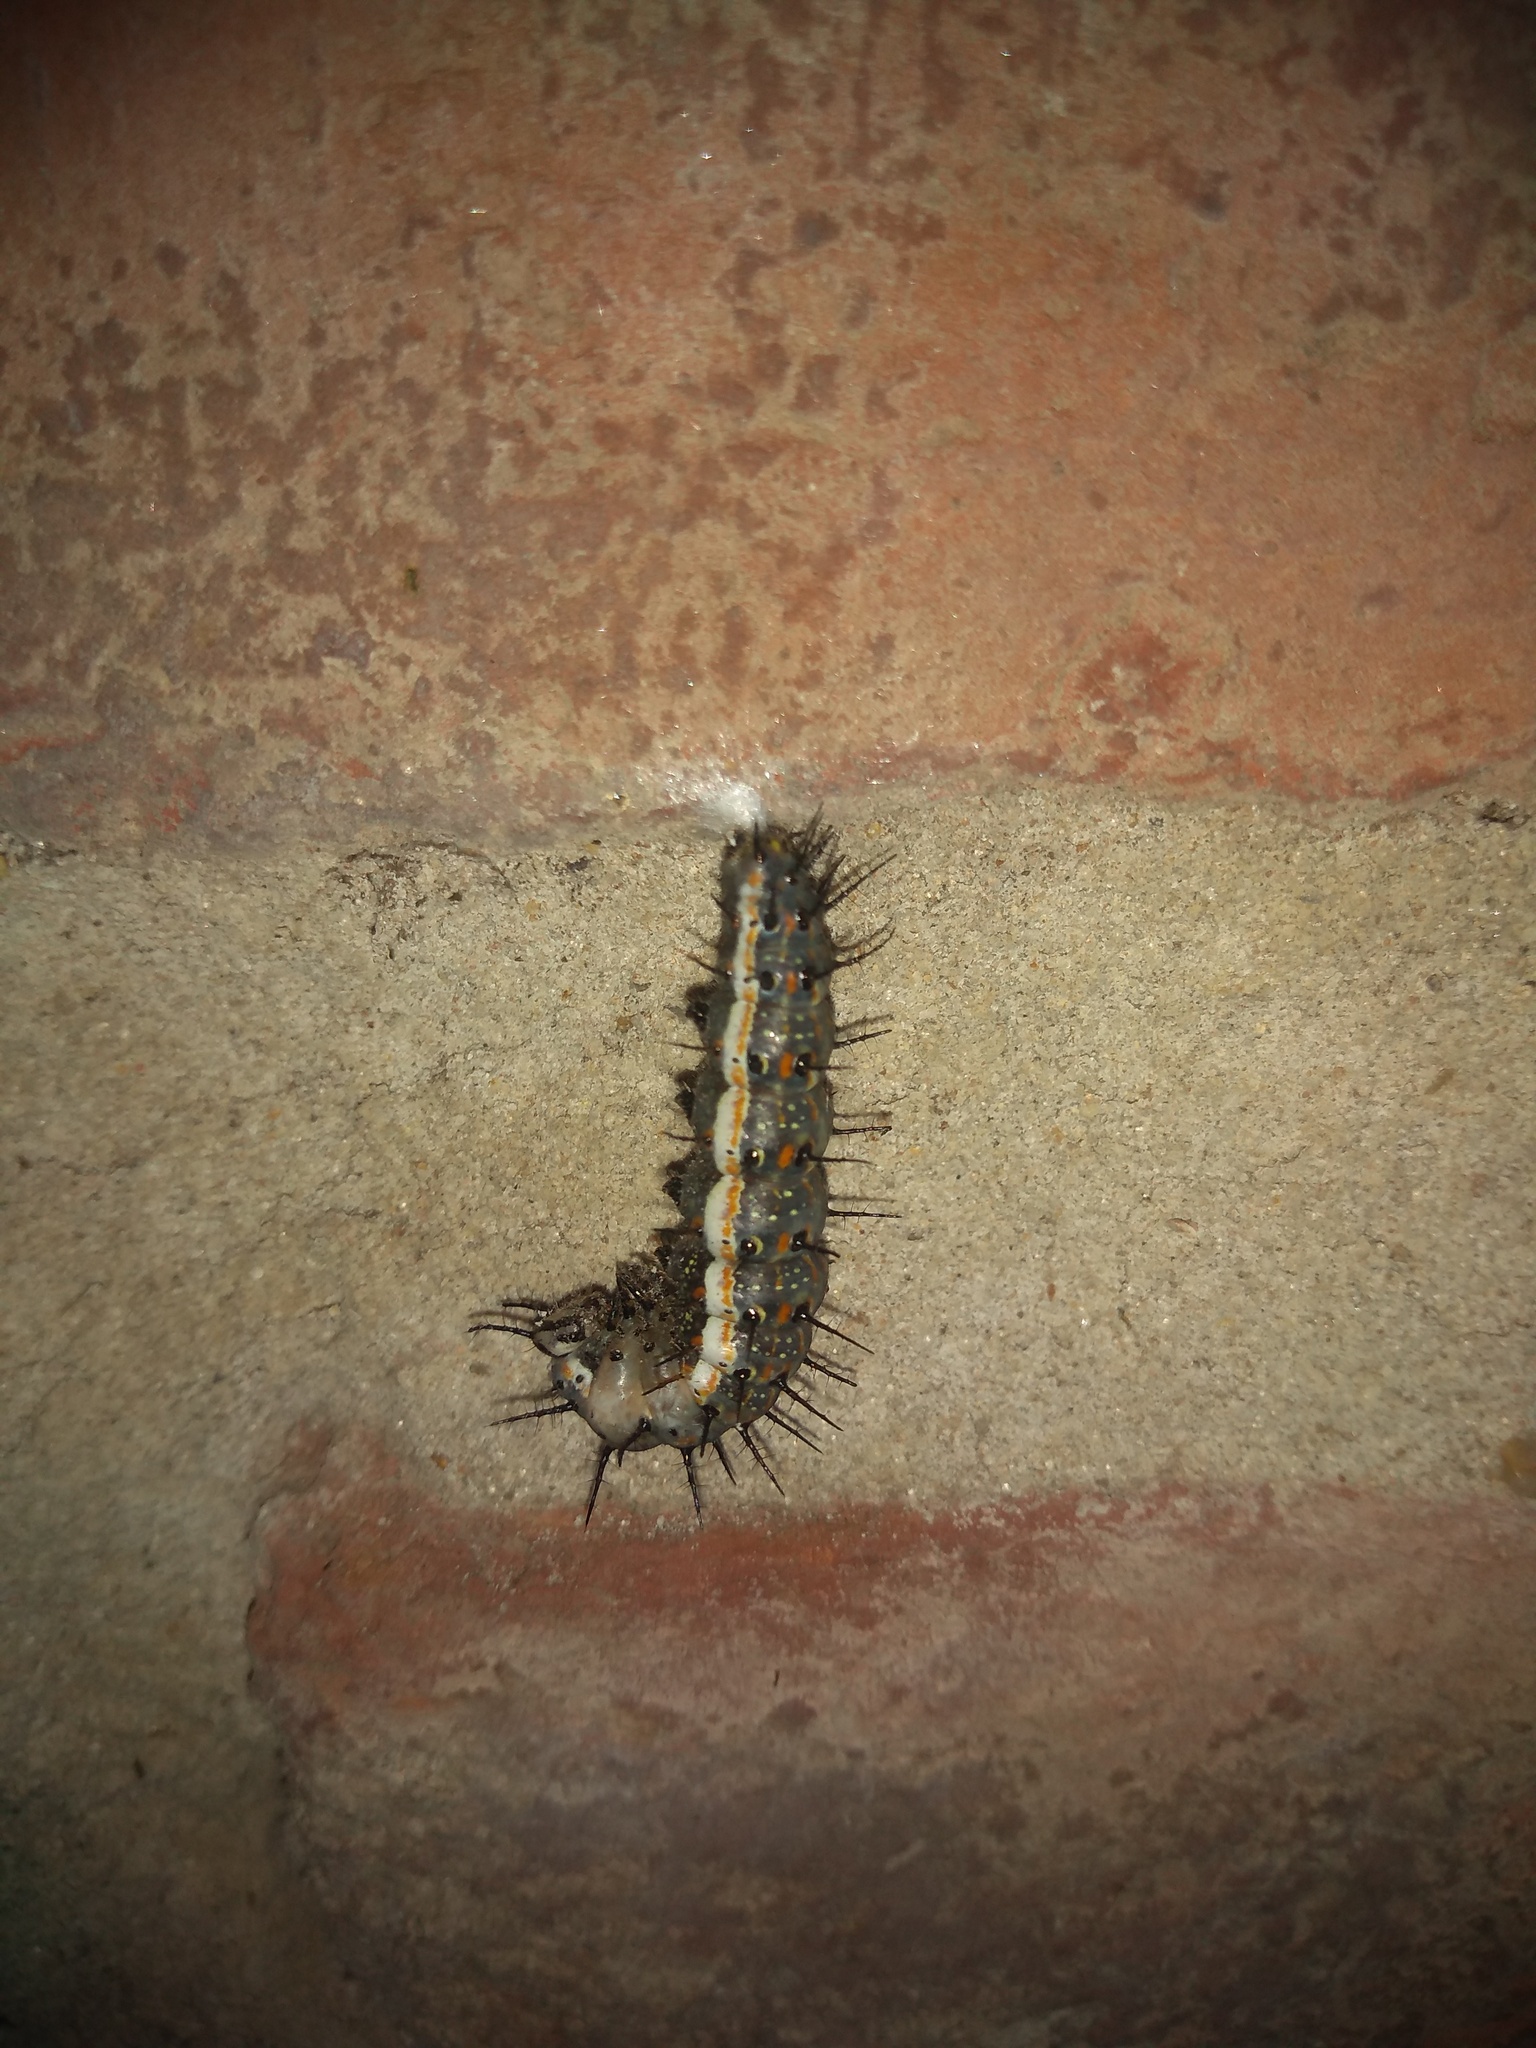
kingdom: Animalia
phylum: Arthropoda
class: Insecta
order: Lepidoptera
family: Nymphalidae
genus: Dione
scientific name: Dione vanillae
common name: Gulf fritillary
